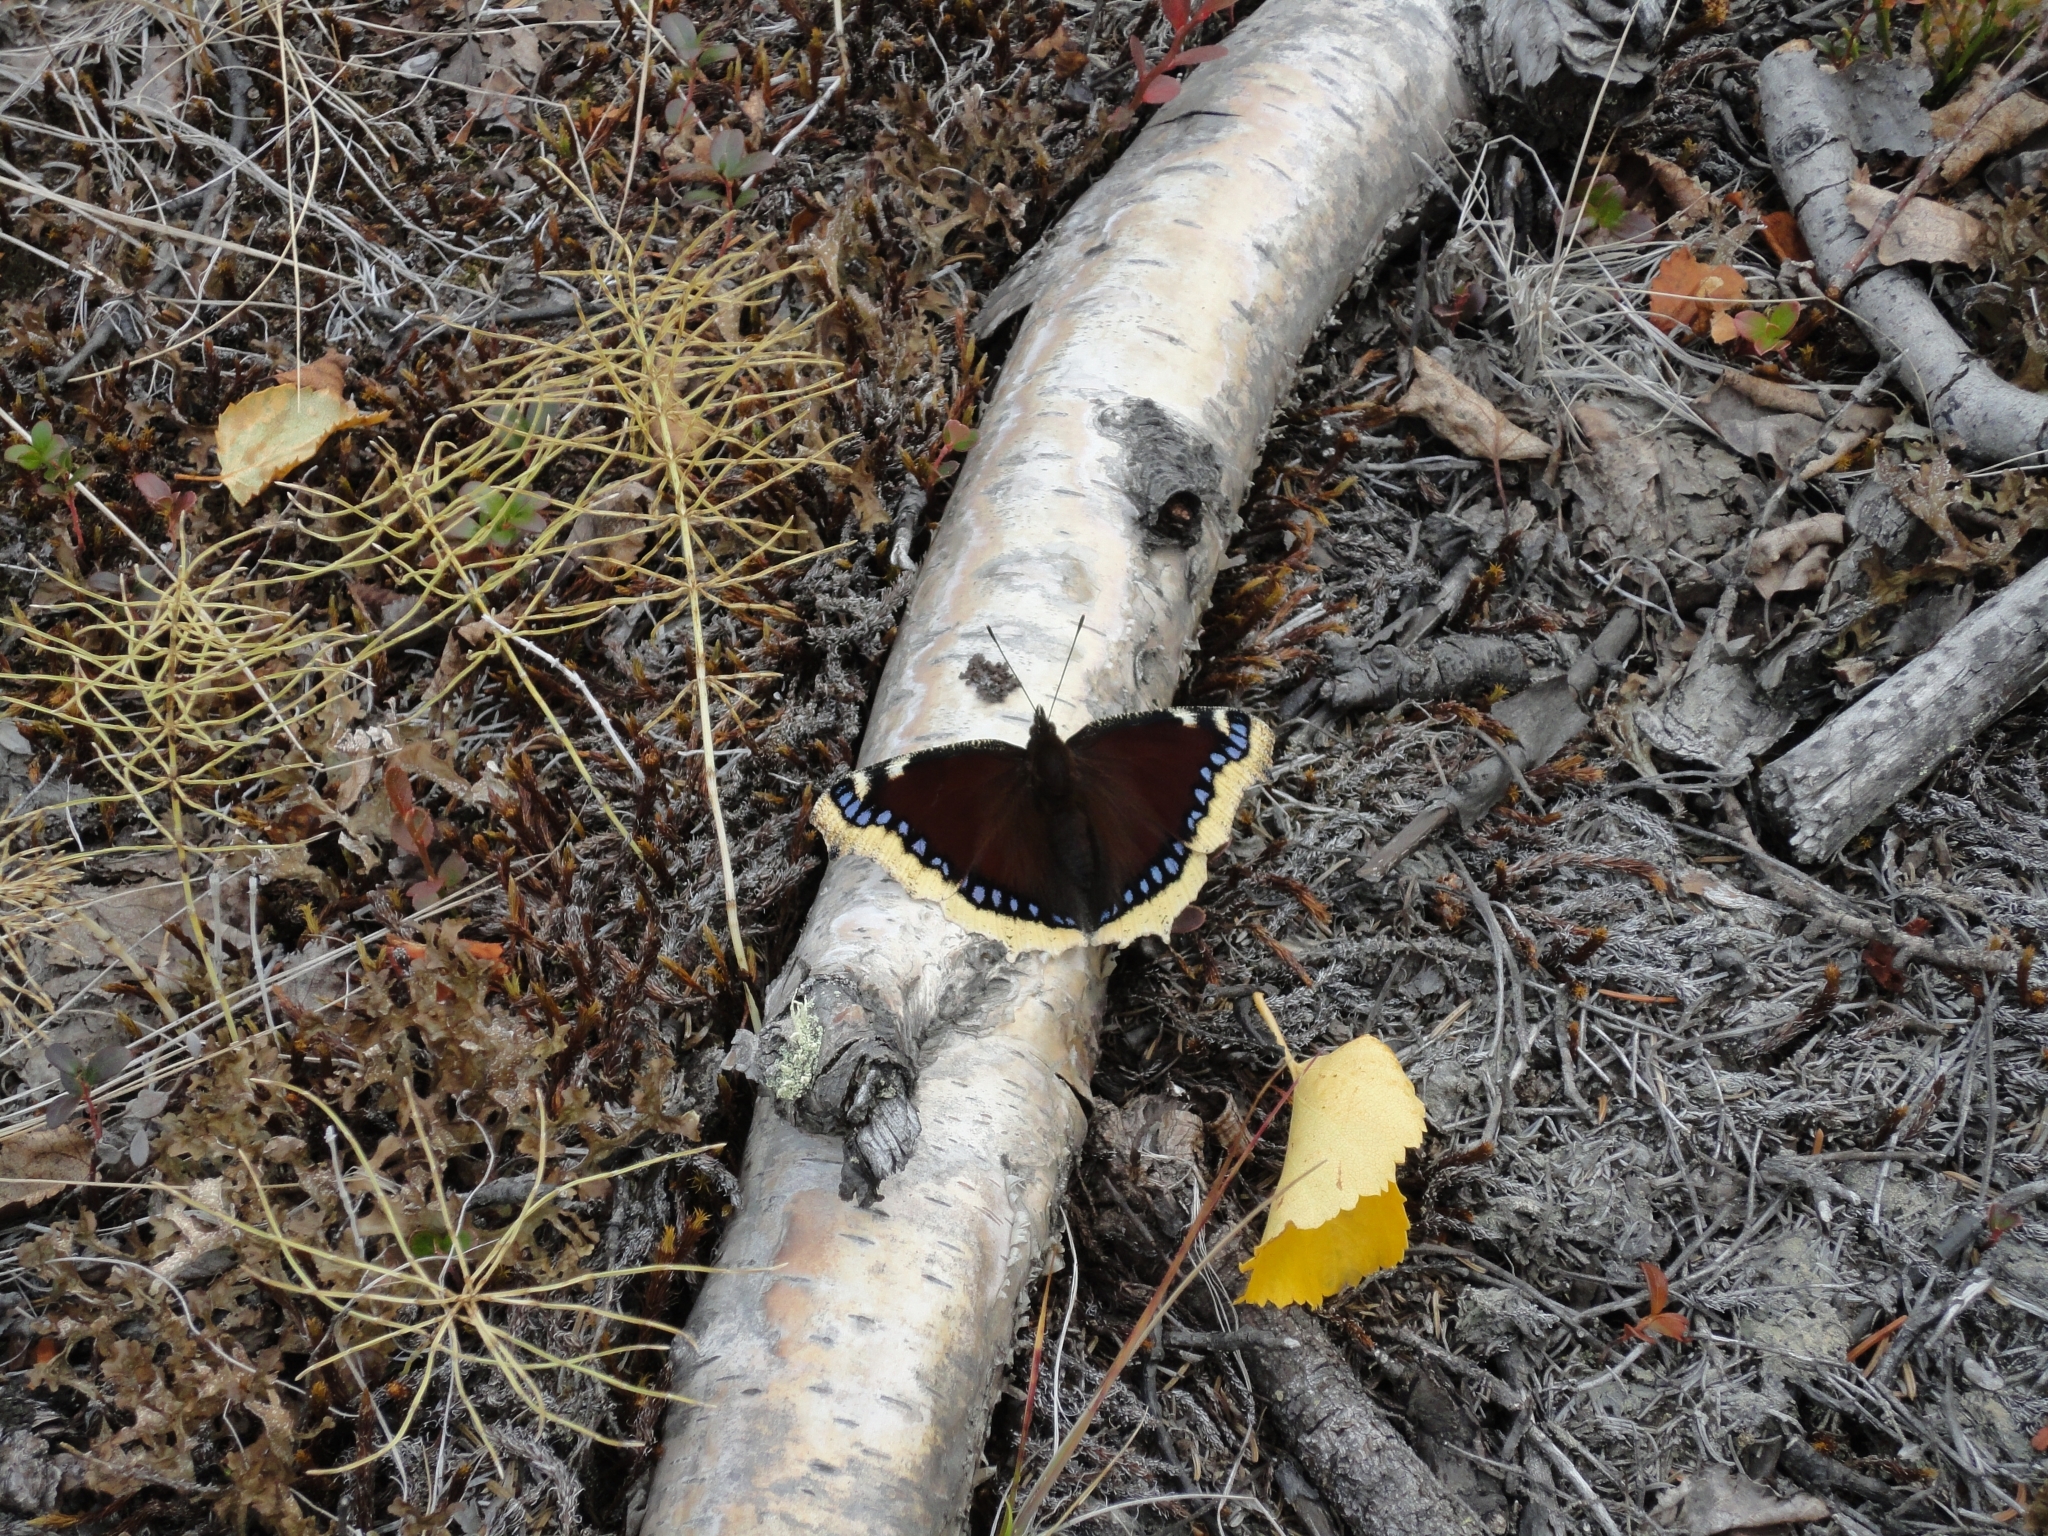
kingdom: Animalia
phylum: Arthropoda
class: Insecta
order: Lepidoptera
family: Nymphalidae
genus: Nymphalis
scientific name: Nymphalis antiopa
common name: Camberwell beauty
